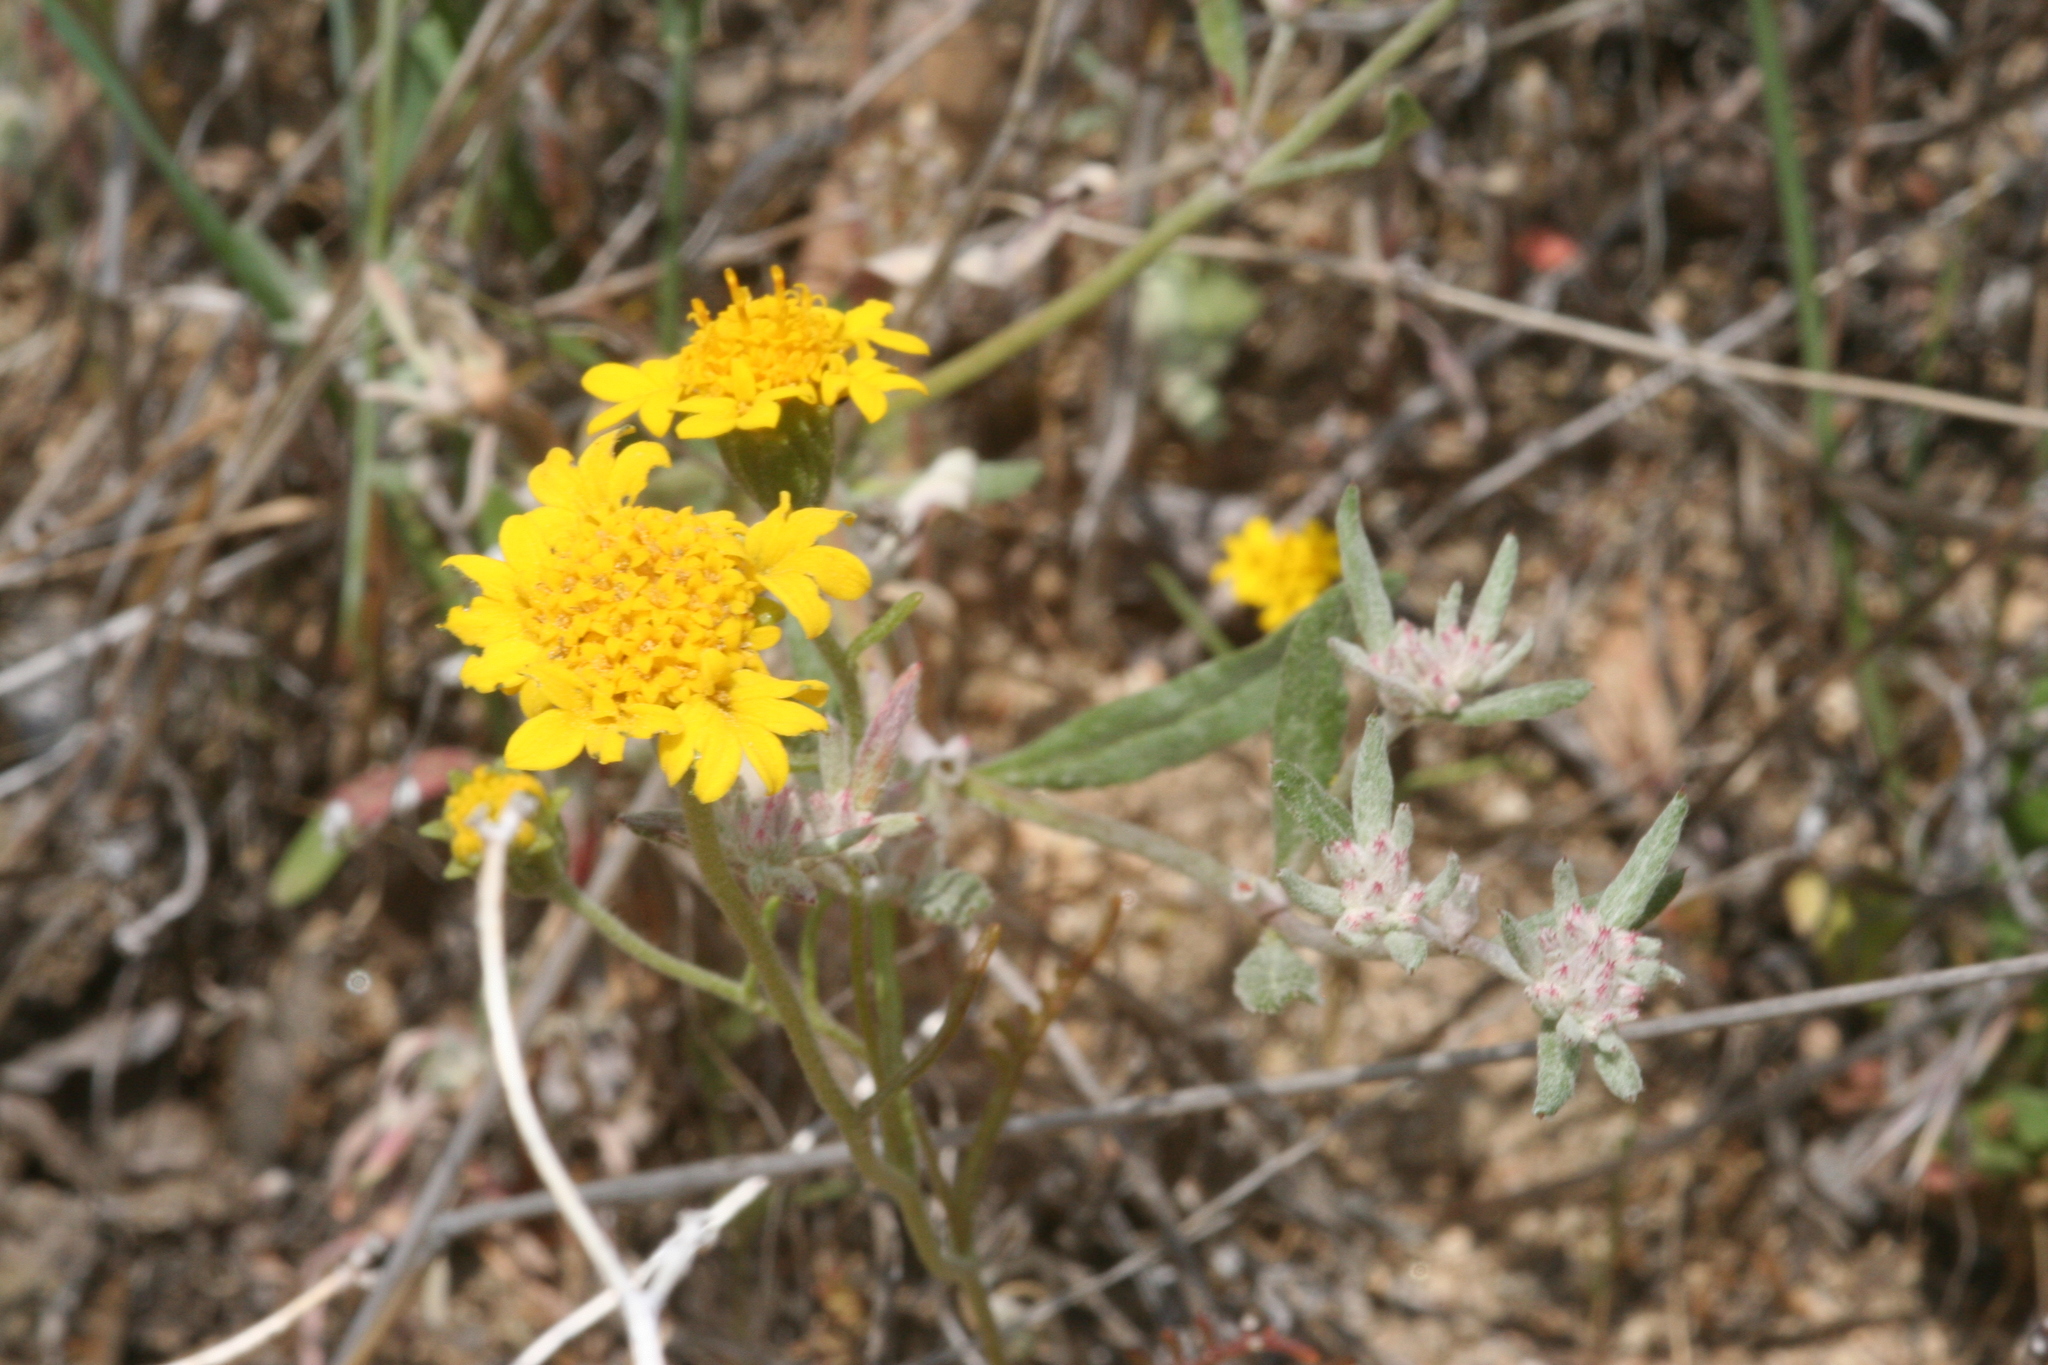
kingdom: Plantae
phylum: Tracheophyta
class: Magnoliopsida
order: Asterales
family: Asteraceae
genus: Chaenactis
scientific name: Chaenactis glabriuscula
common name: Yellow pincushion
